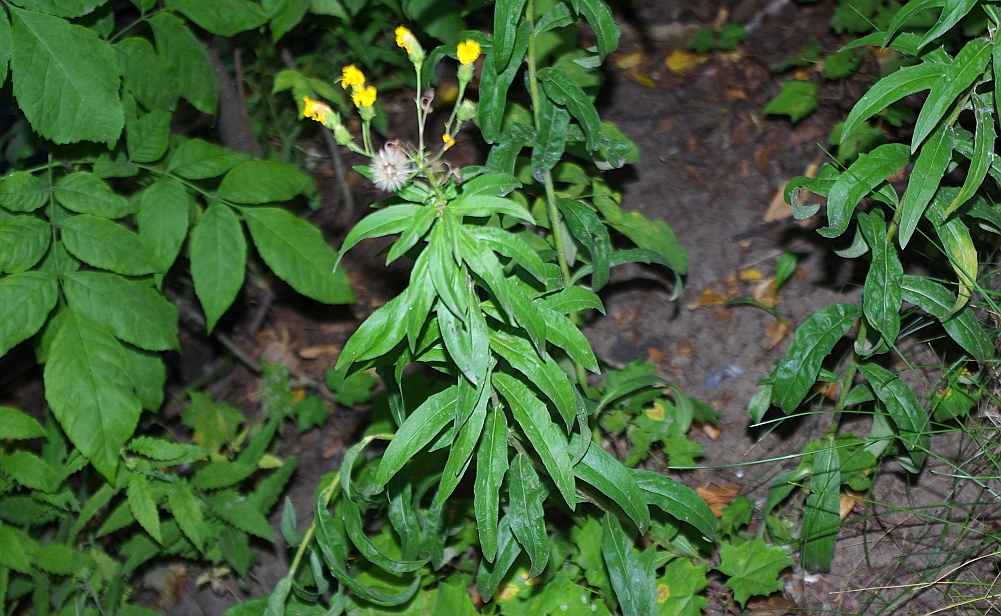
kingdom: Plantae
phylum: Tracheophyta
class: Magnoliopsida
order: Asterales
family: Asteraceae
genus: Hieracium
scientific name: Hieracium umbellatum
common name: Northern hawkweed
